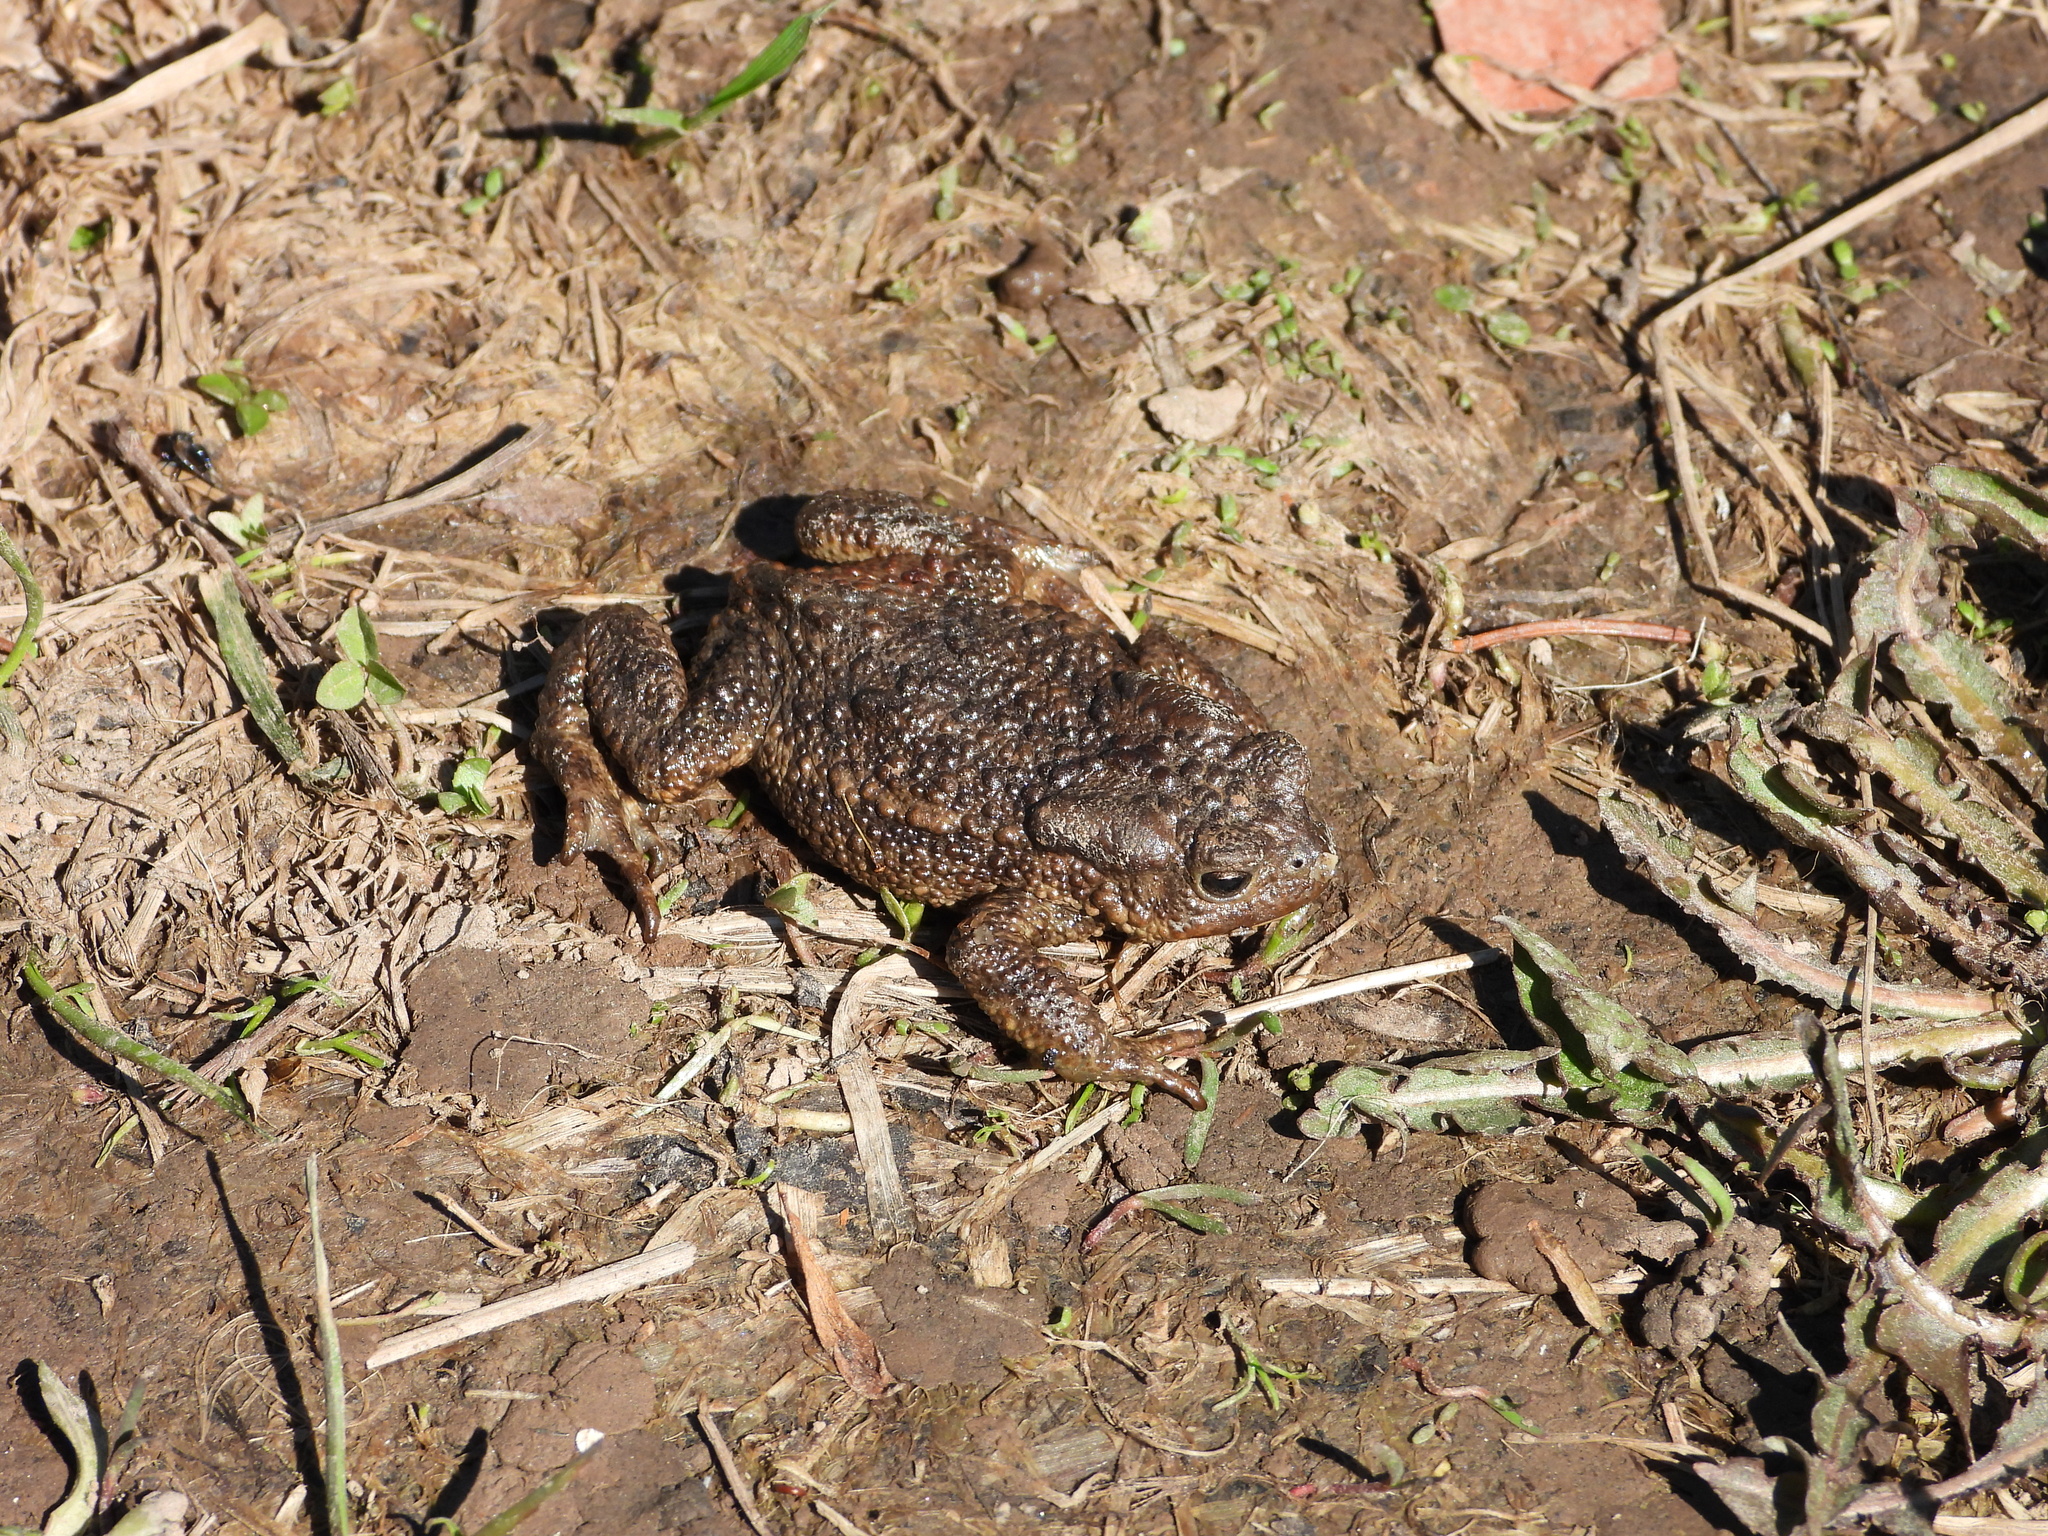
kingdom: Animalia
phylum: Chordata
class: Amphibia
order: Anura
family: Bufonidae
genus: Bufo
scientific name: Bufo bufo
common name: Common toad
